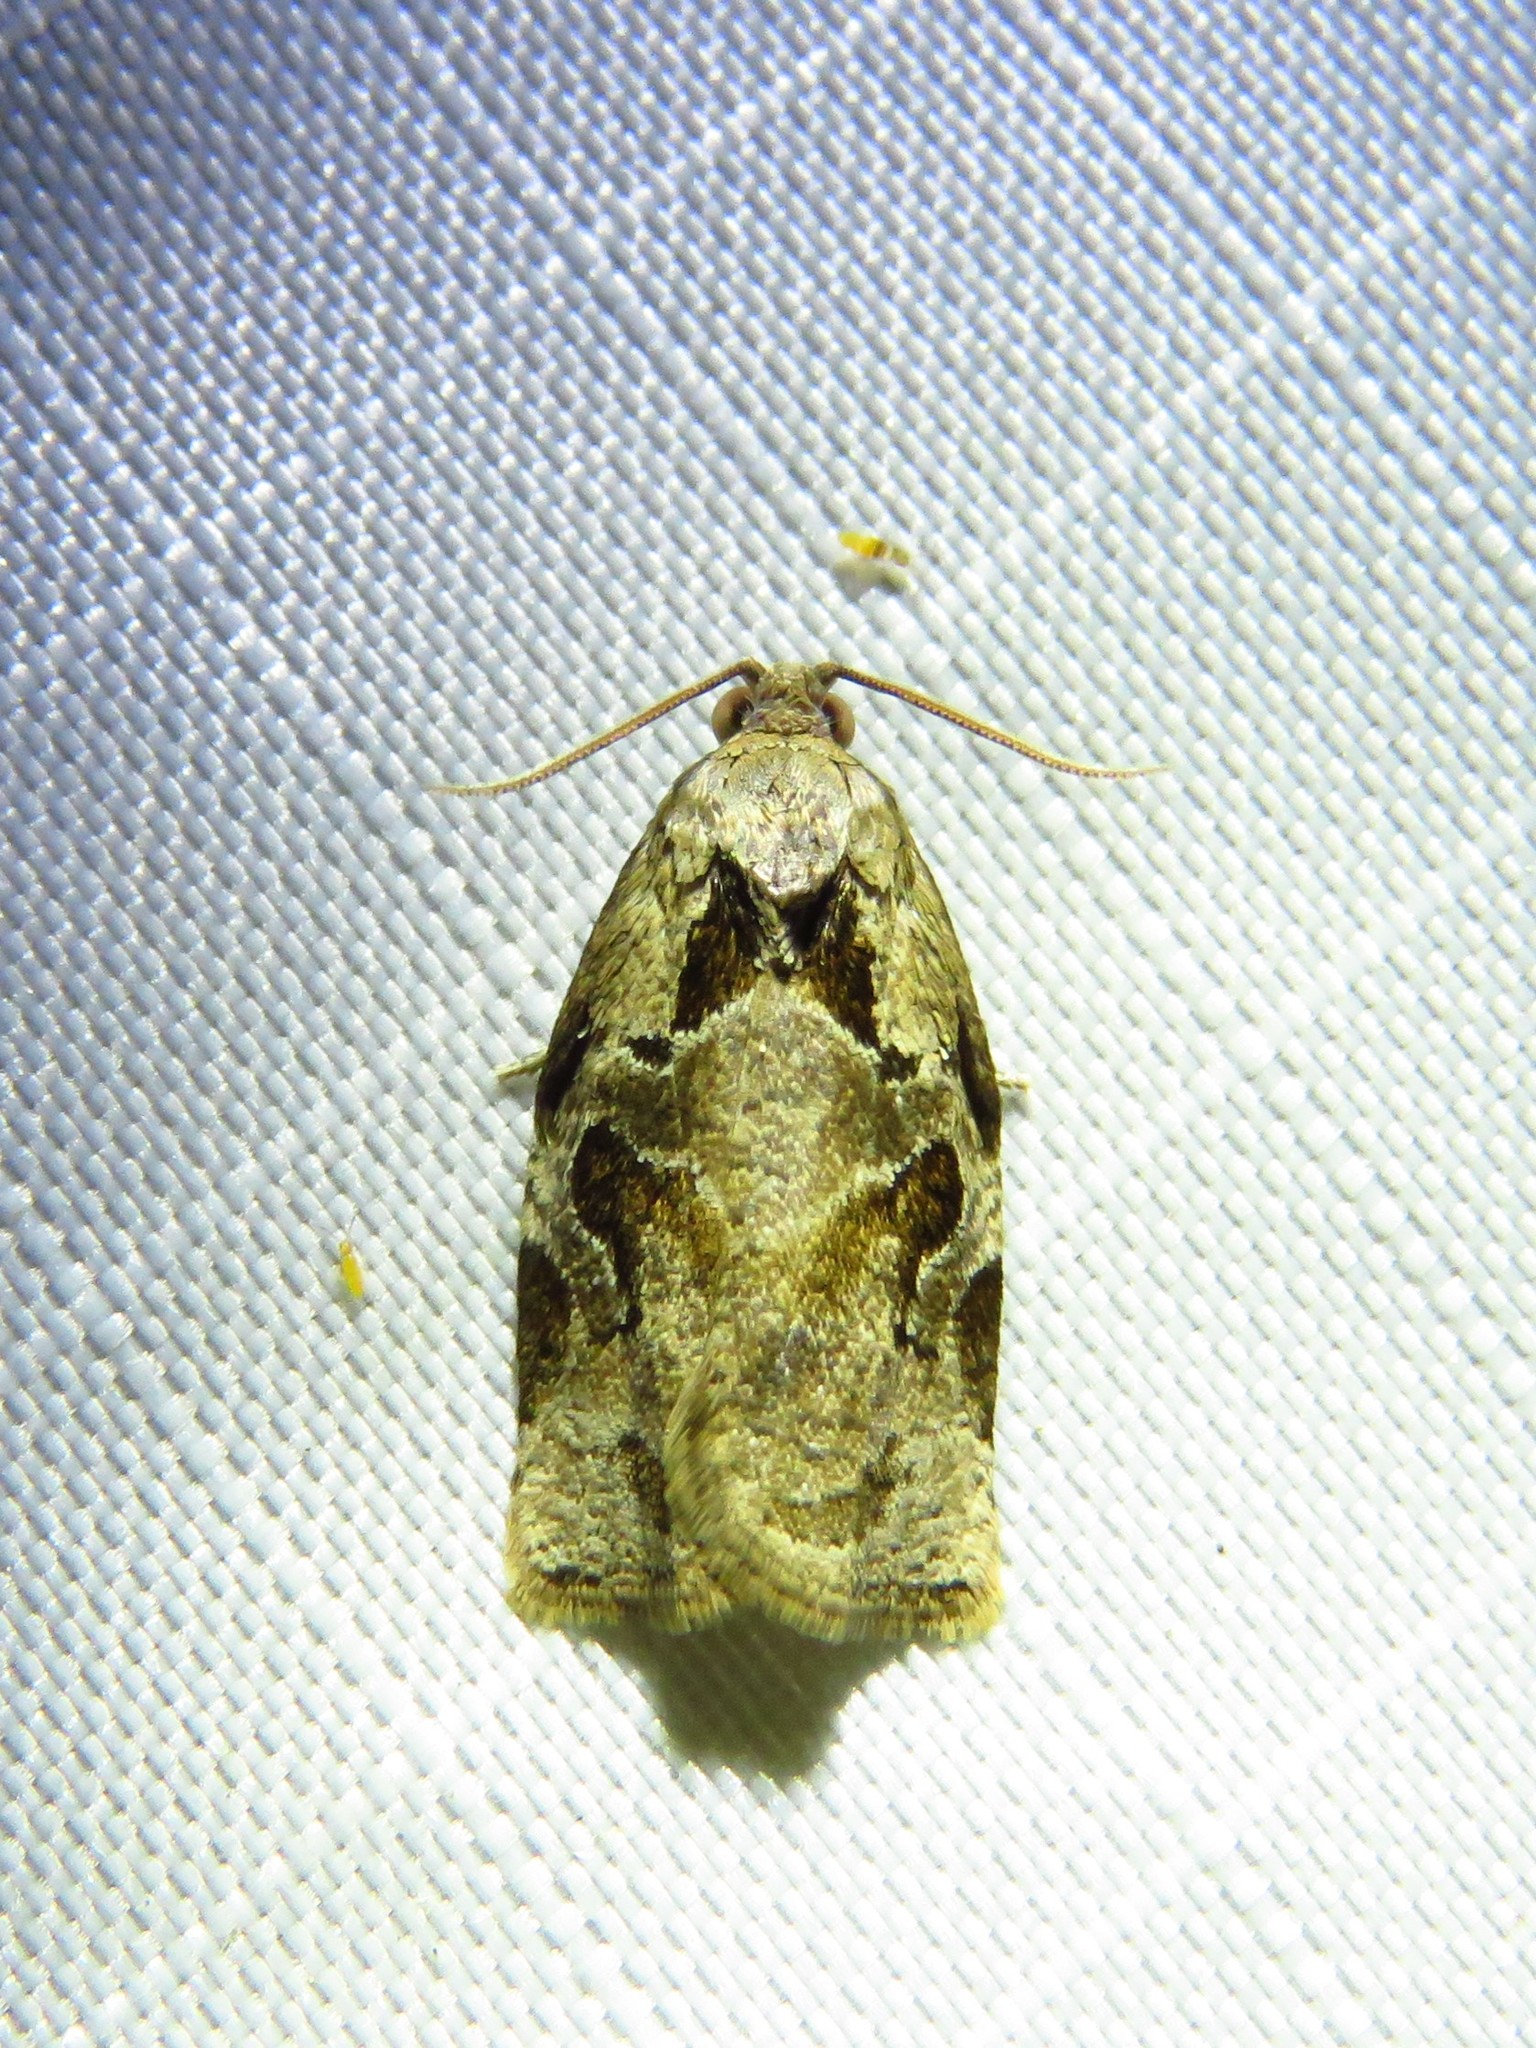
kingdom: Animalia
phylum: Arthropoda
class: Insecta
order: Lepidoptera
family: Tortricidae
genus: Archips
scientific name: Archips grisea
